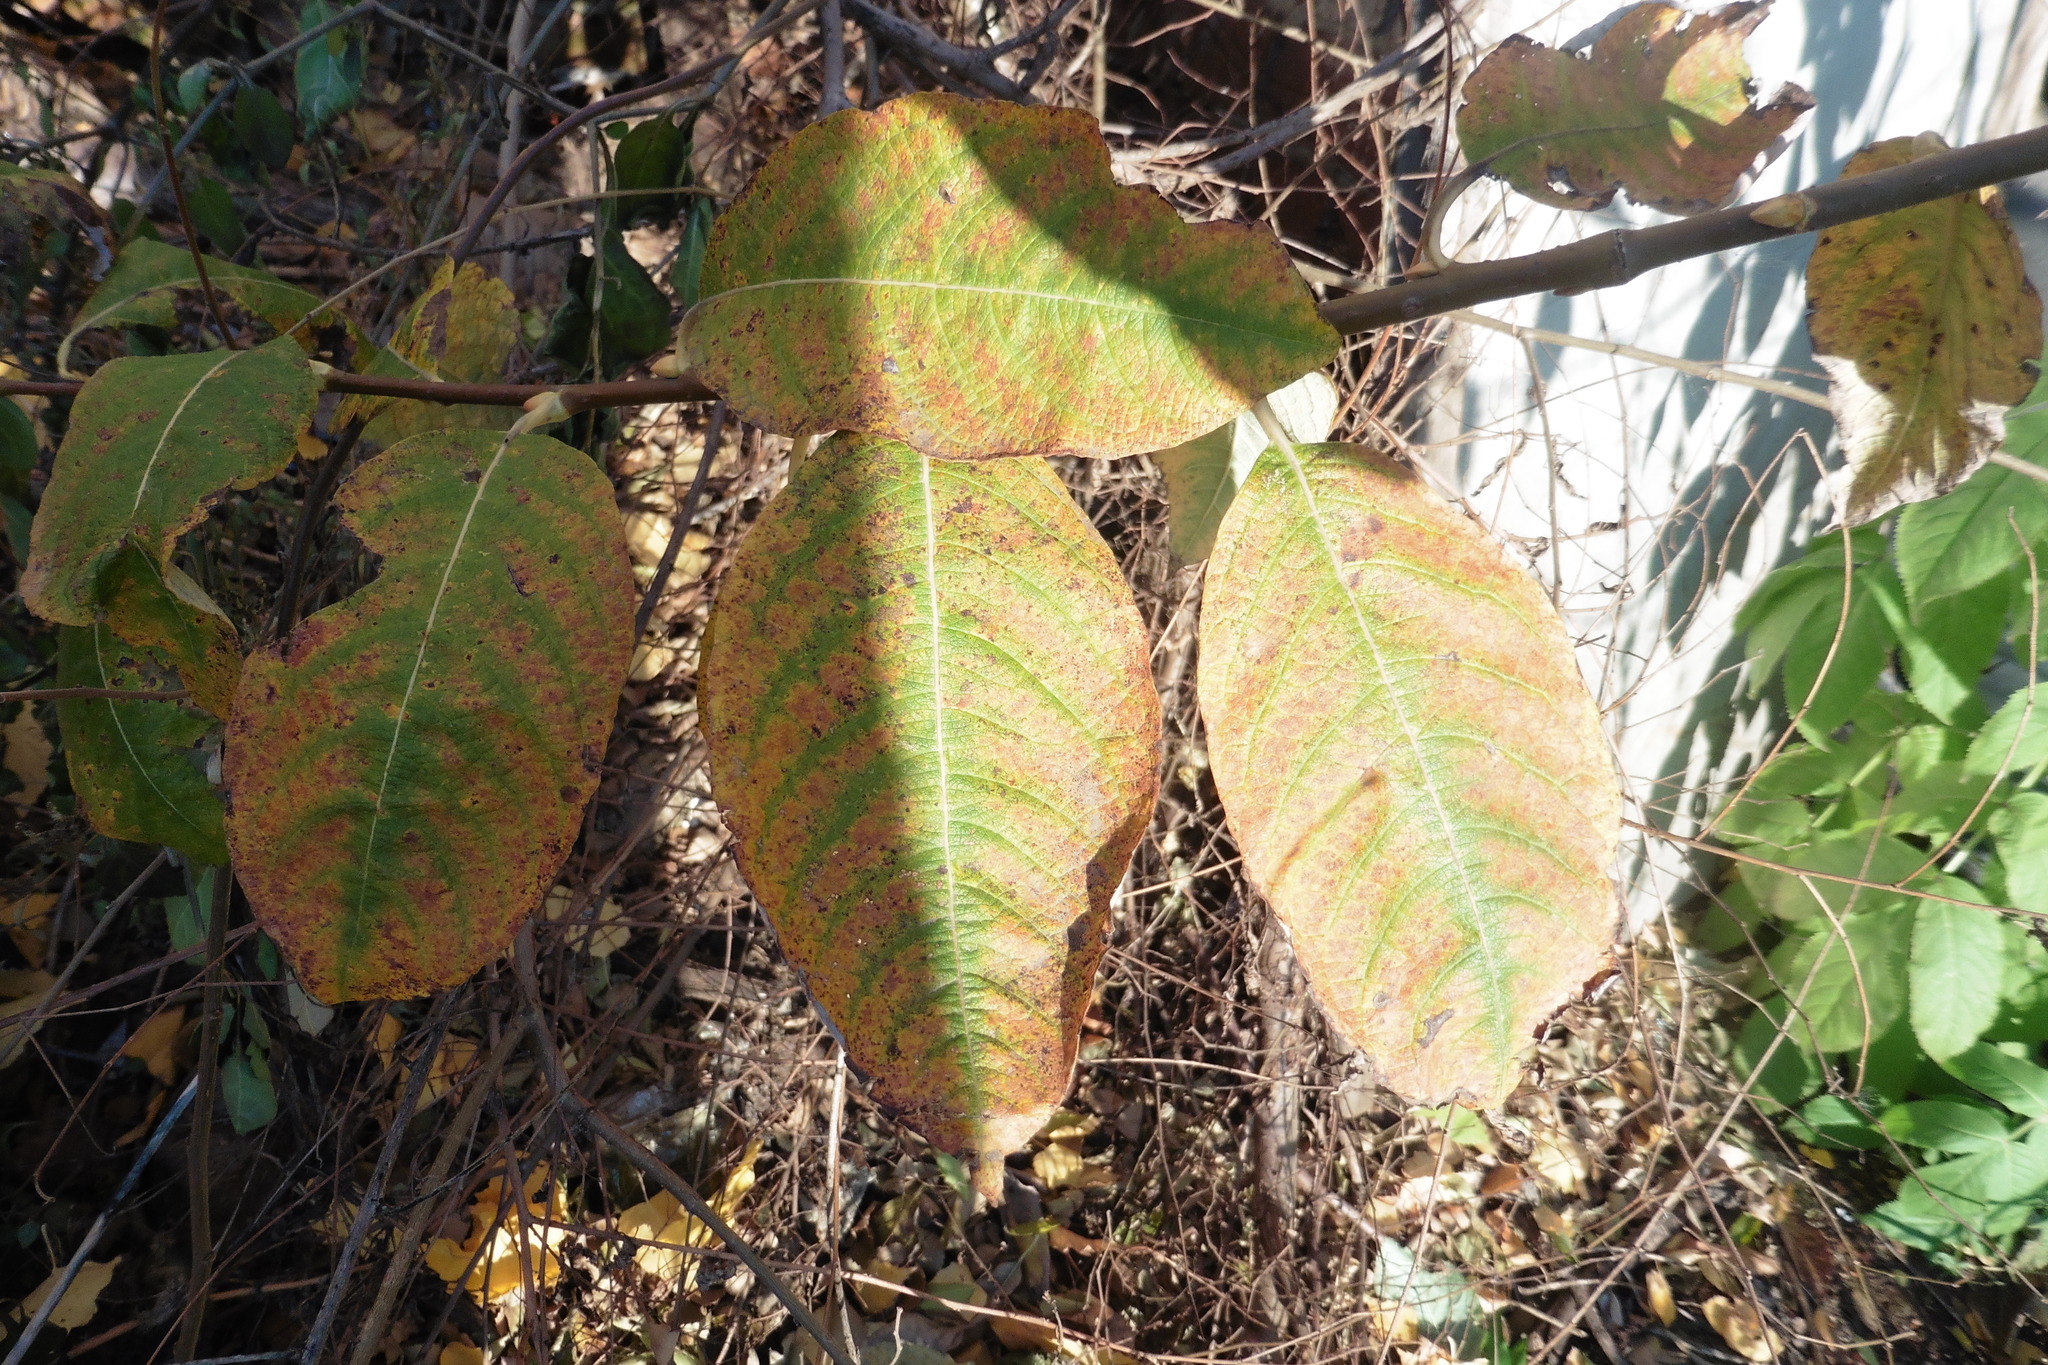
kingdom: Plantae
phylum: Tracheophyta
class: Magnoliopsida
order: Malpighiales
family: Salicaceae
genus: Salix
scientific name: Salix caprea
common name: Goat willow
